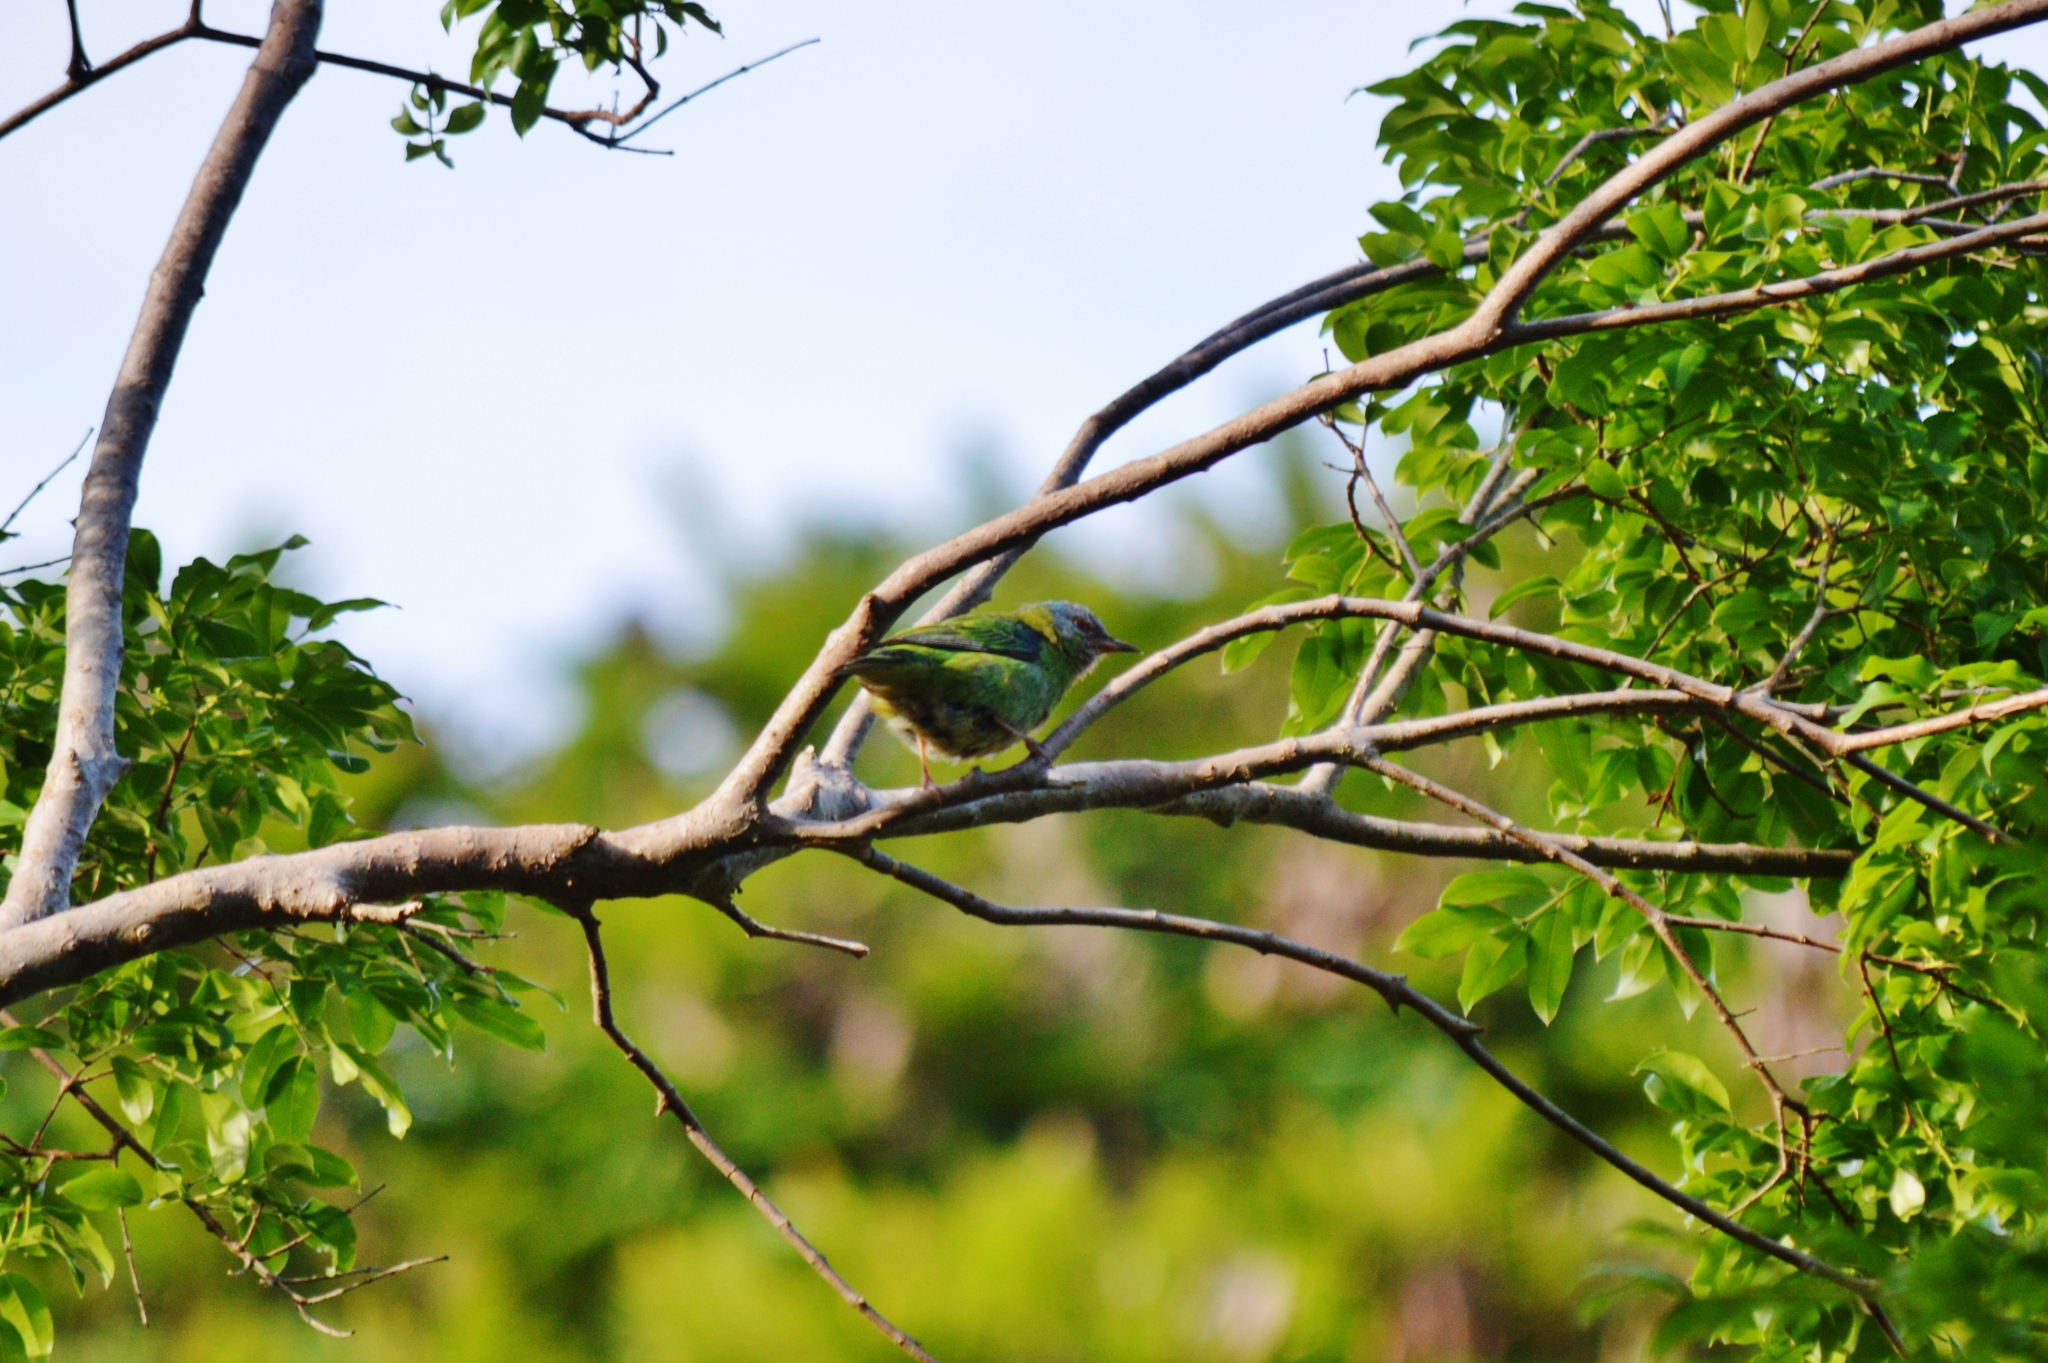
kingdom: Animalia
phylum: Chordata
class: Aves
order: Passeriformes
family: Thraupidae
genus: Dacnis
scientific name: Dacnis cayana
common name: Blue dacnis
